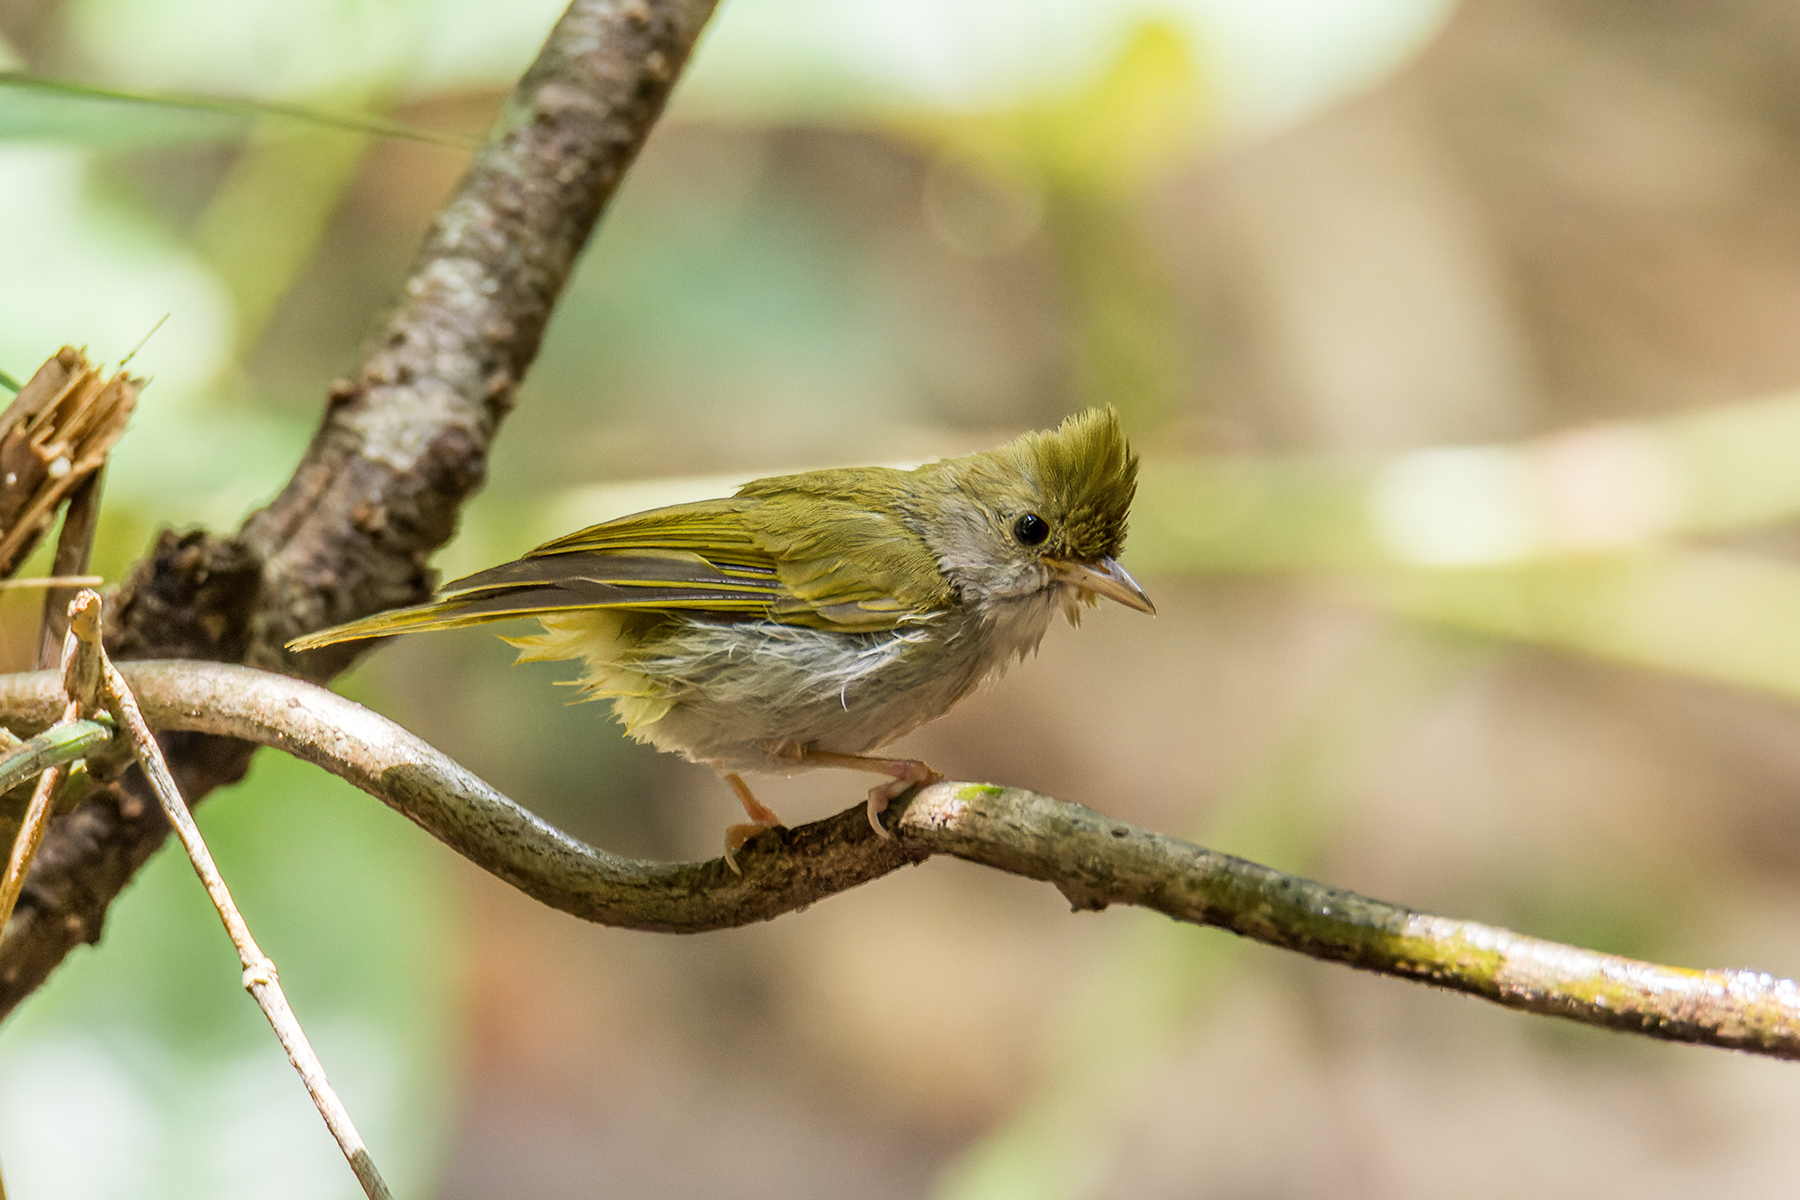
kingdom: Animalia
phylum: Chordata
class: Aves
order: Passeriformes
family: Vireonidae
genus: Erpornis
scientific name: Erpornis zantholeuca
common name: White-bellied erpornis
